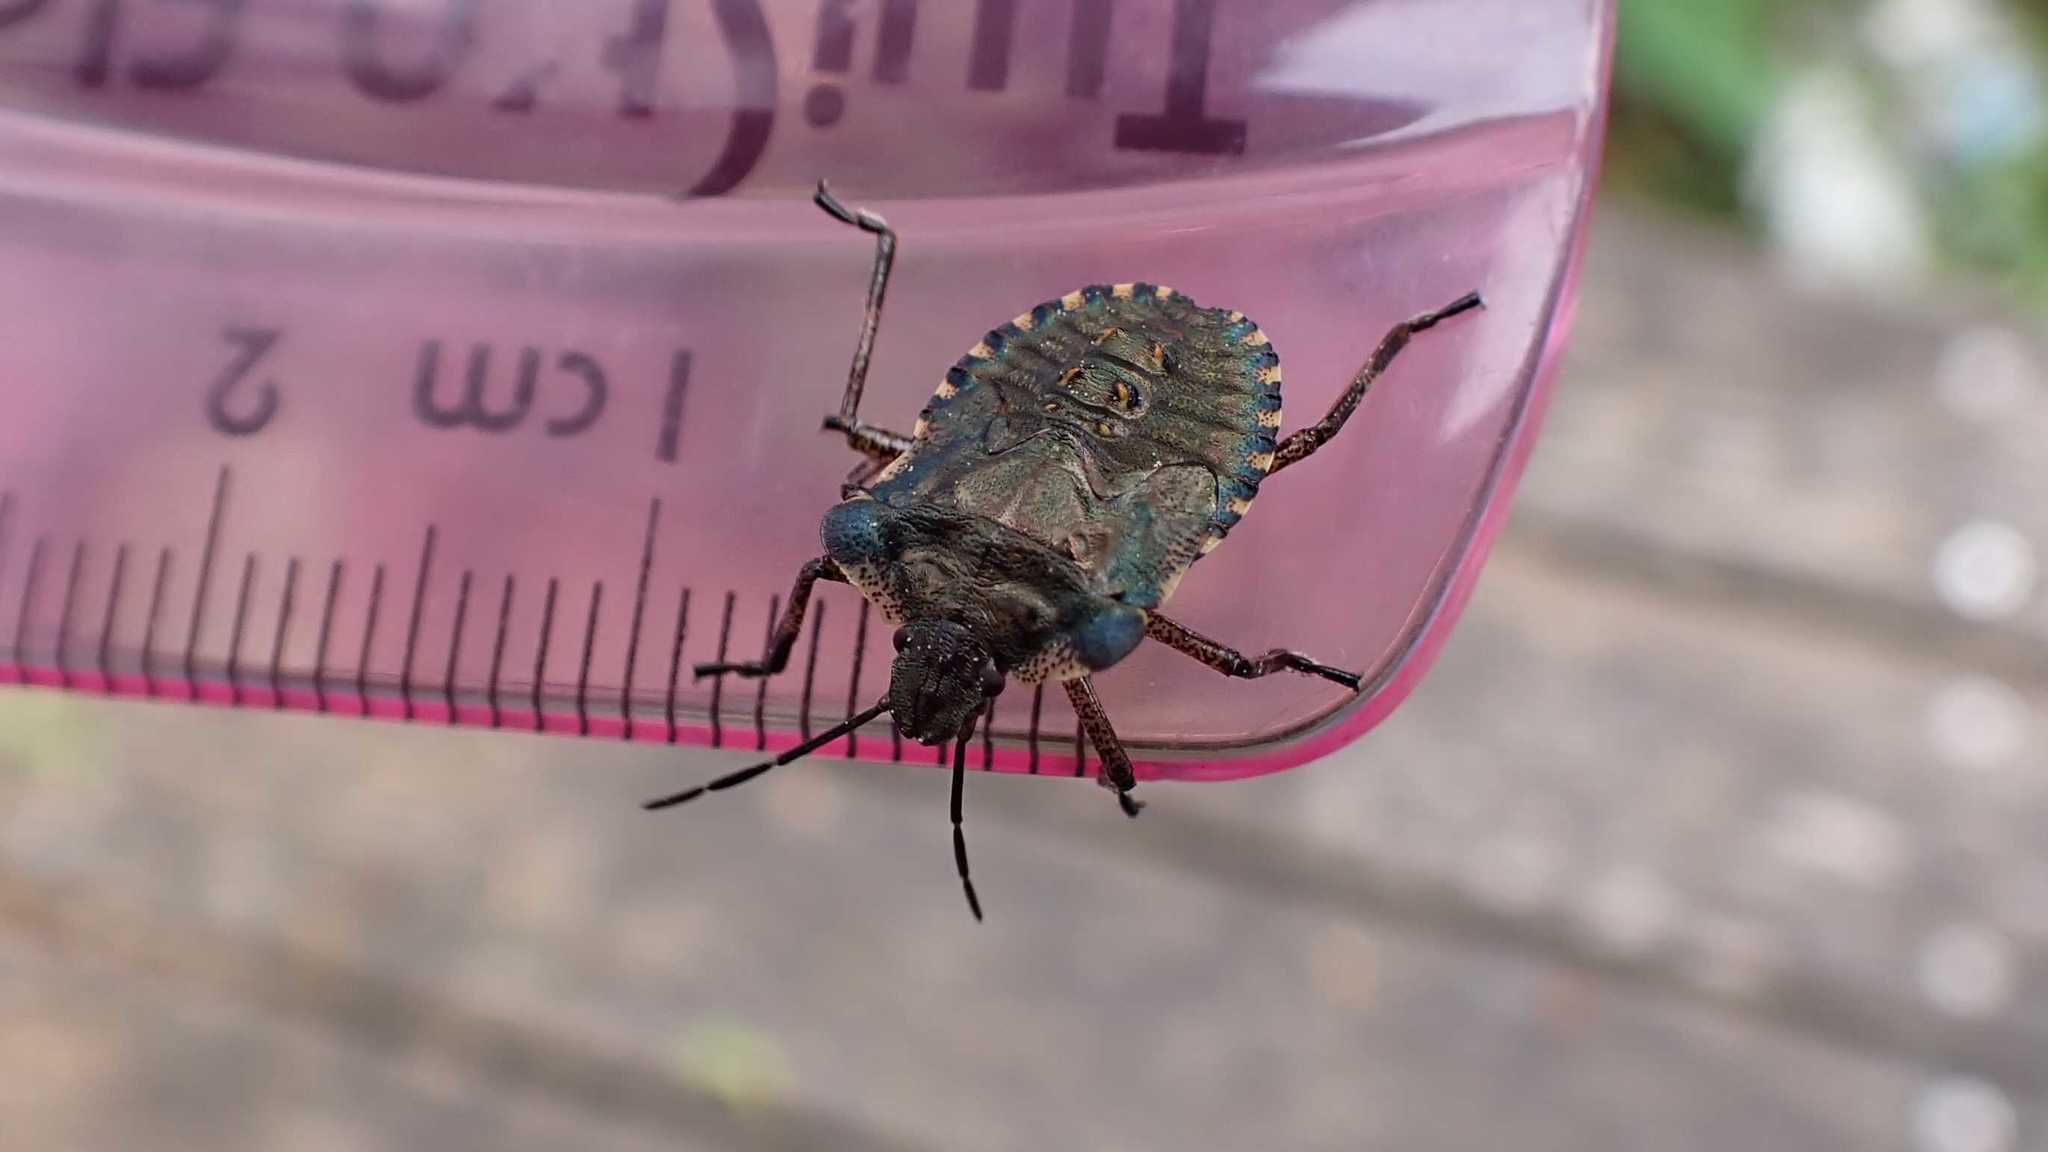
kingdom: Animalia
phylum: Arthropoda
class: Insecta
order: Hemiptera
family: Pentatomidae
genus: Pentatoma
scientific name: Pentatoma rufipes
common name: Forest bug
